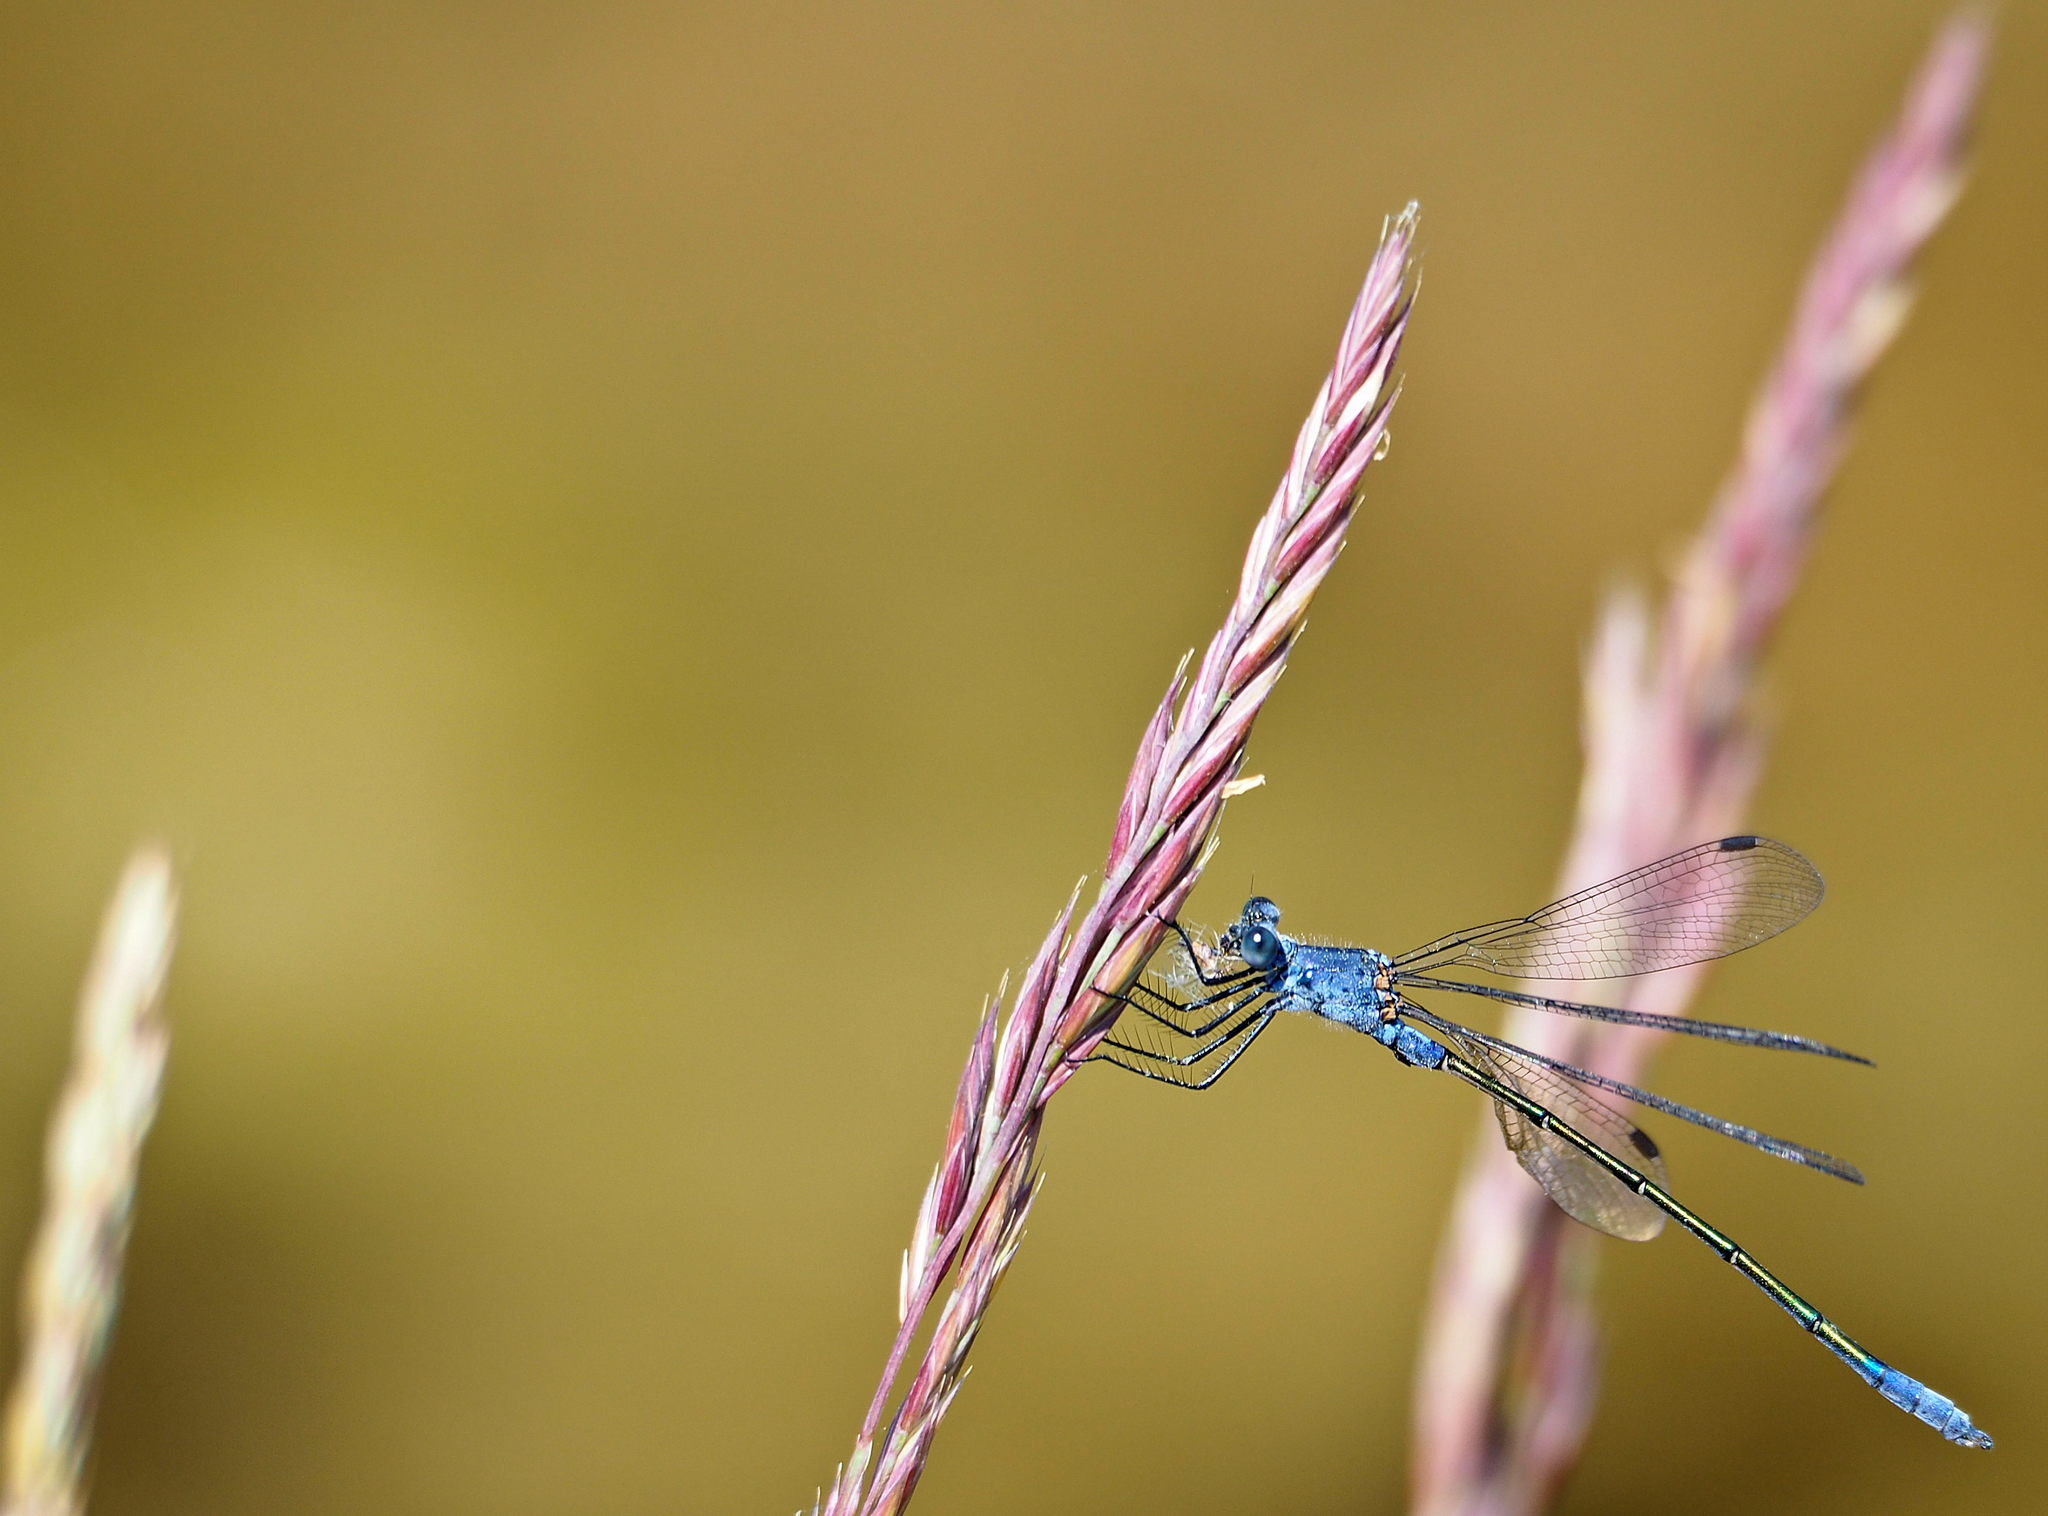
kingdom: Animalia
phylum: Arthropoda
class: Insecta
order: Odonata
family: Lestidae
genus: Lestes
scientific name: Lestes macrostigma
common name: Dark spreadwing
